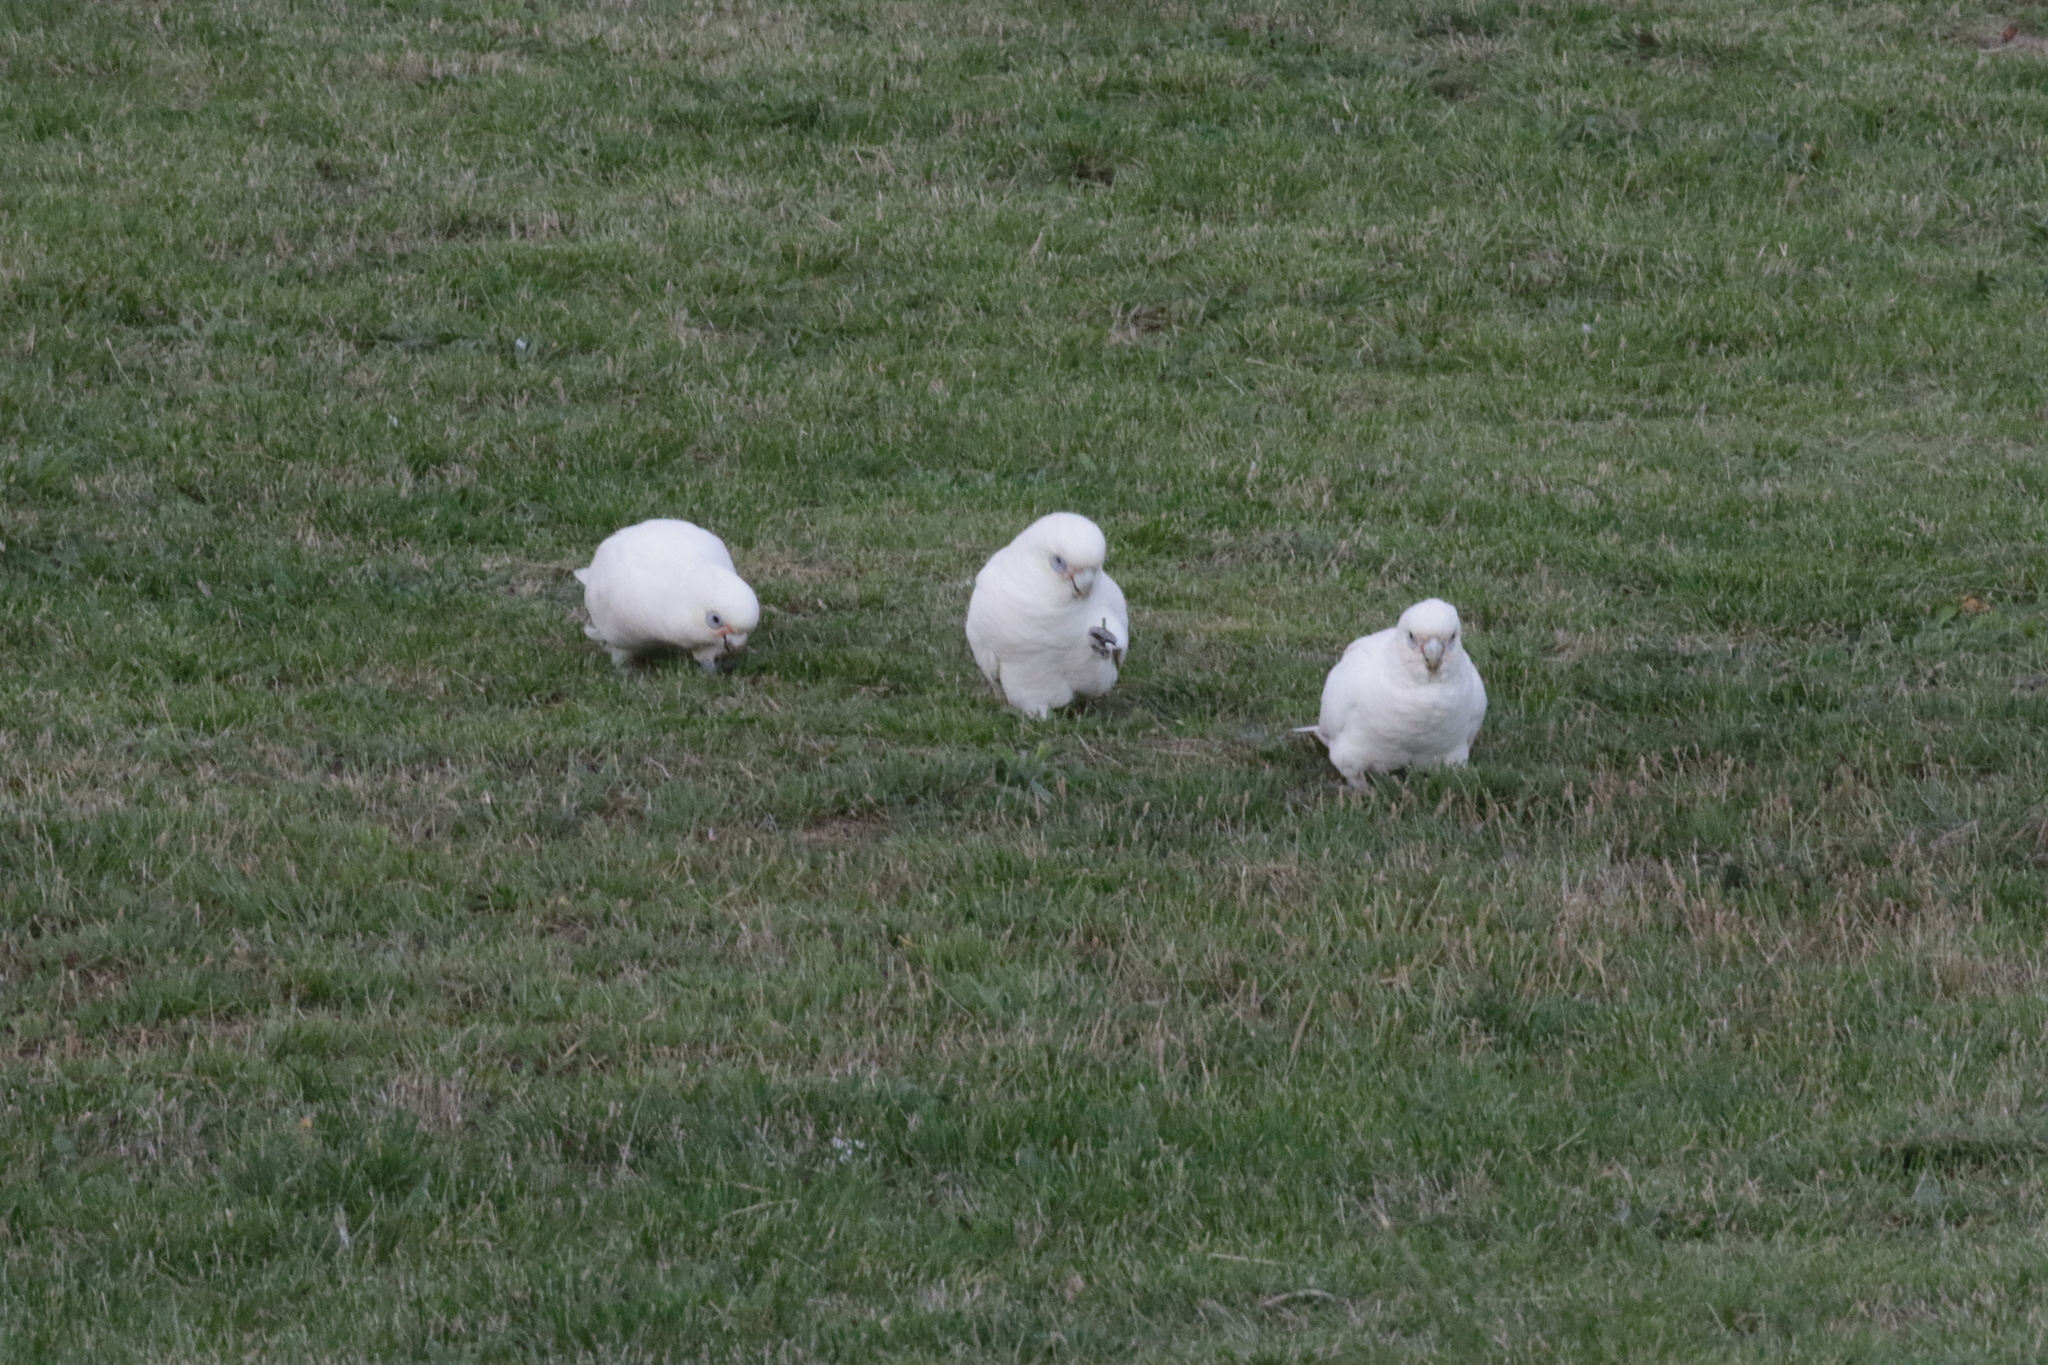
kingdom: Animalia
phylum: Chordata
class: Aves
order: Psittaciformes
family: Psittacidae
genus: Cacatua
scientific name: Cacatua sanguinea
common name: Little corella
